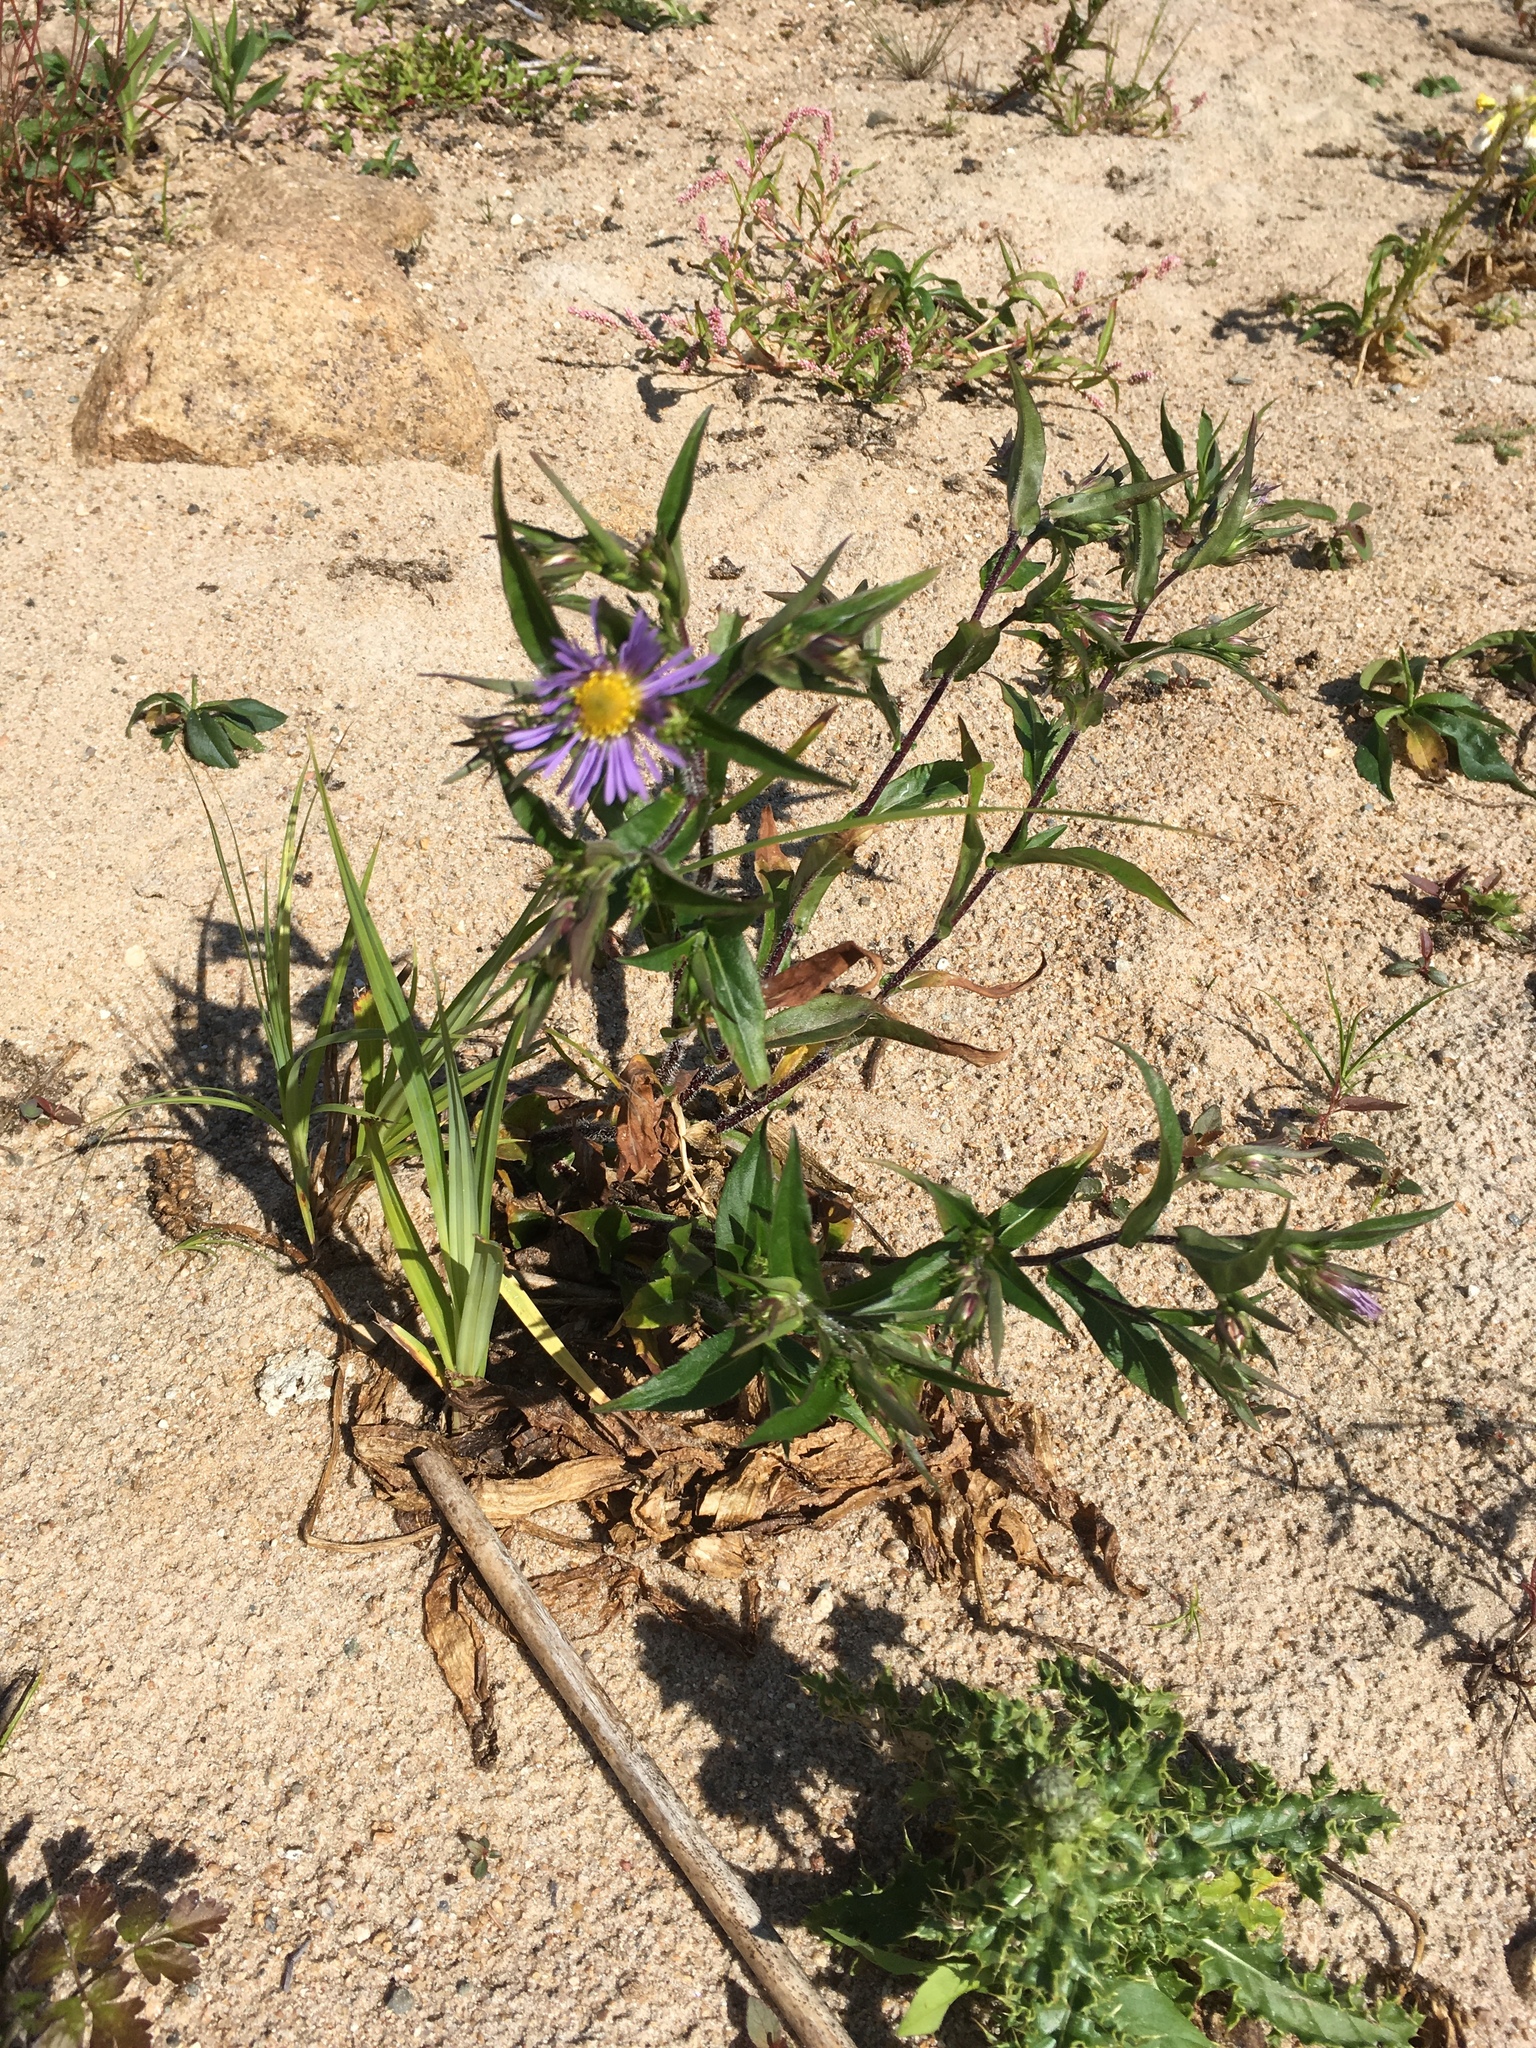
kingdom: Plantae
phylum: Tracheophyta
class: Magnoliopsida
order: Asterales
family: Asteraceae
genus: Symphyotrichum
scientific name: Symphyotrichum puniceum
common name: Bog aster
